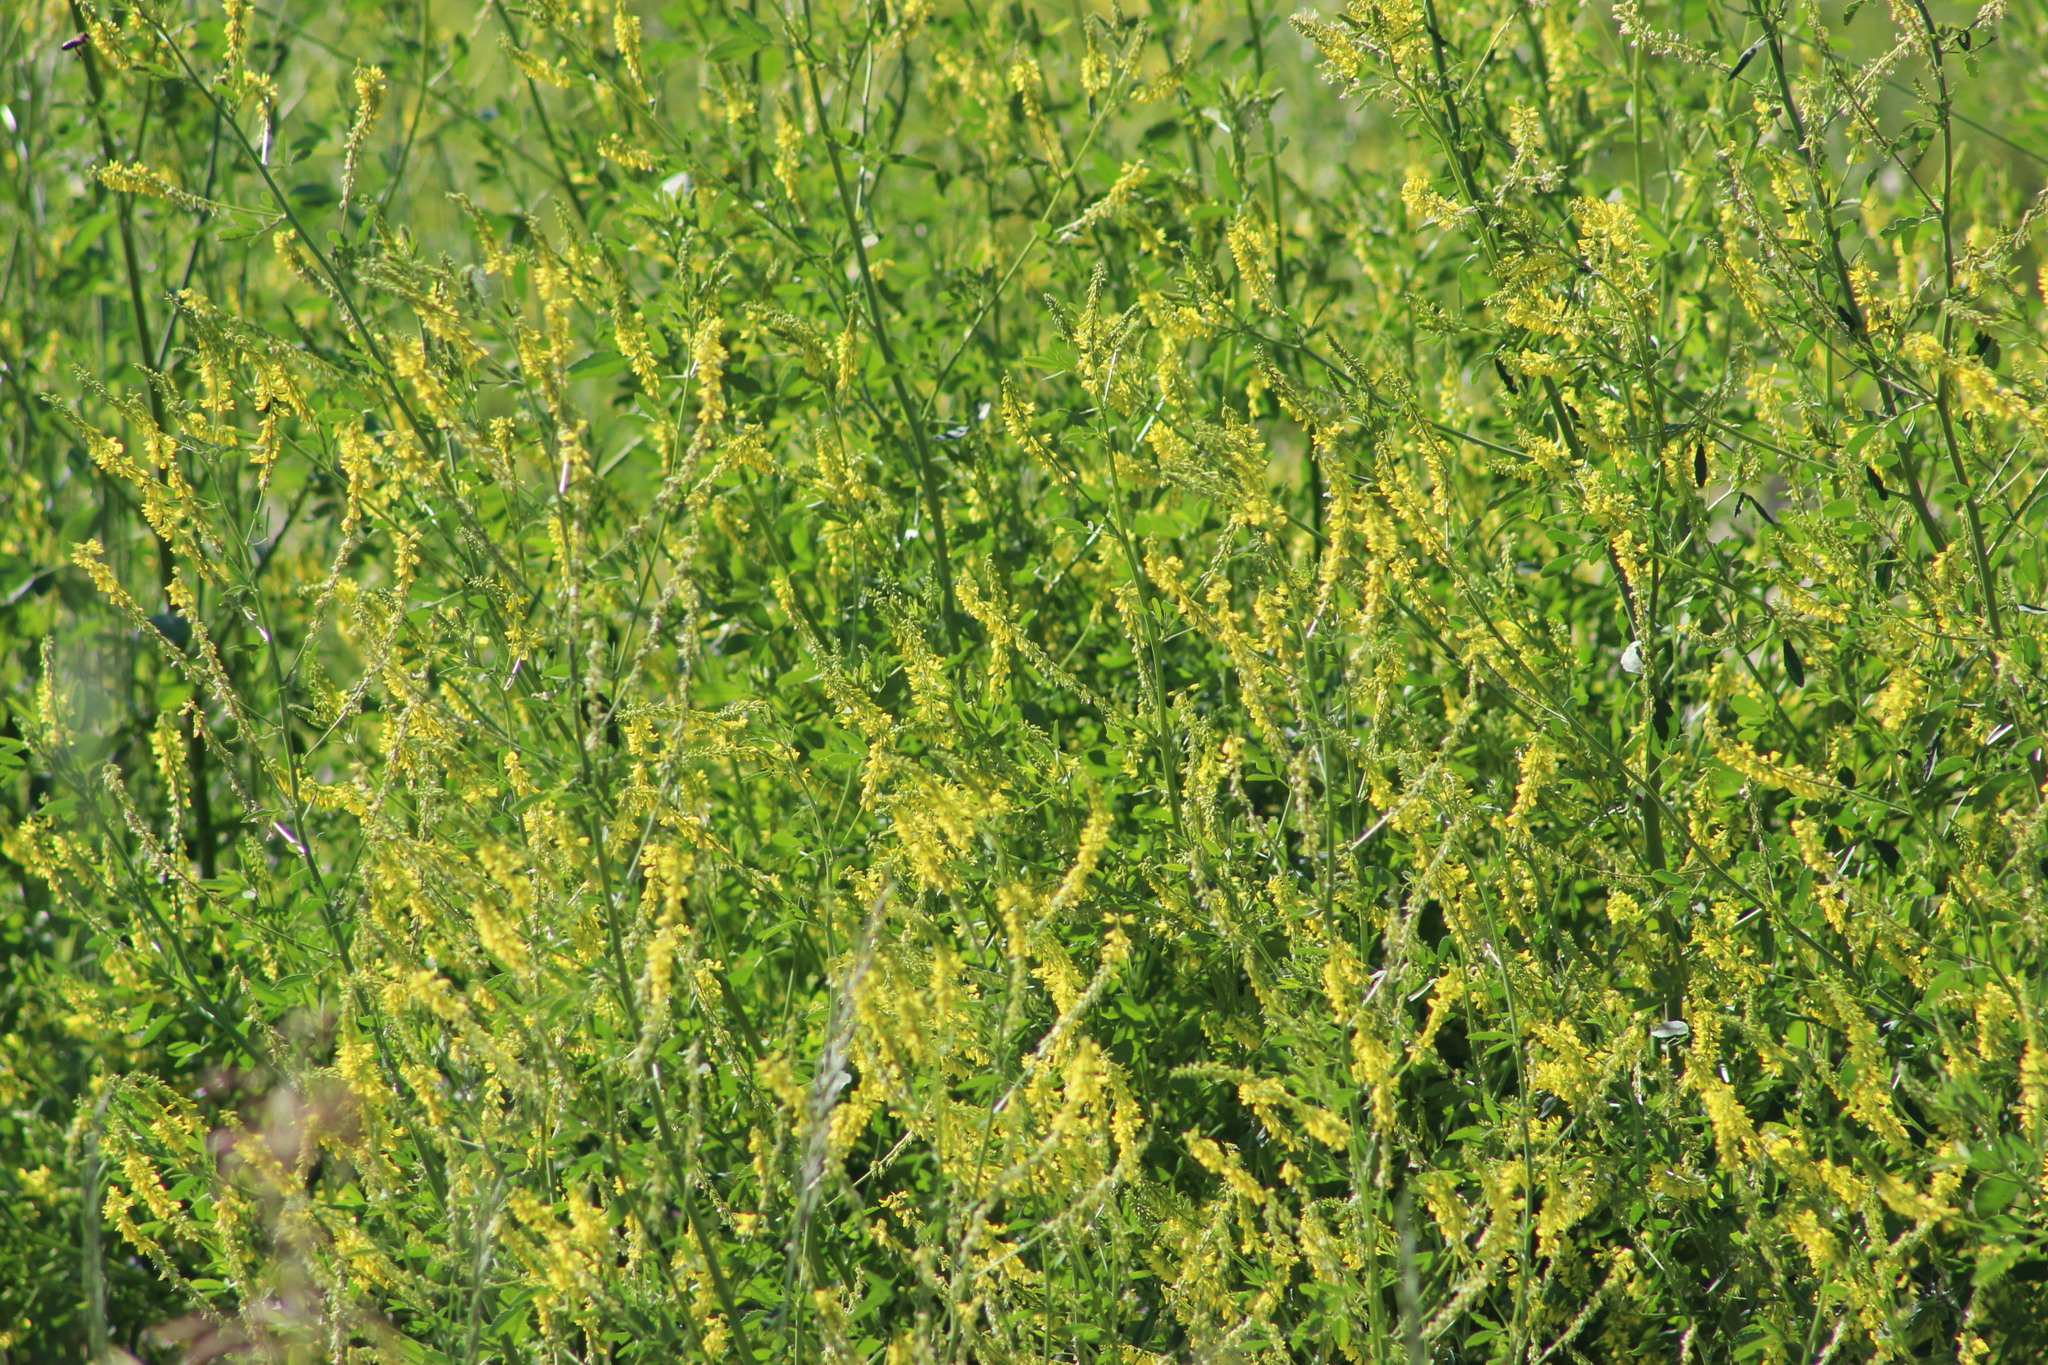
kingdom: Plantae
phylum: Tracheophyta
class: Magnoliopsida
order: Fabales
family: Fabaceae
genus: Melilotus
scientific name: Melilotus officinalis
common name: Sweetclover
